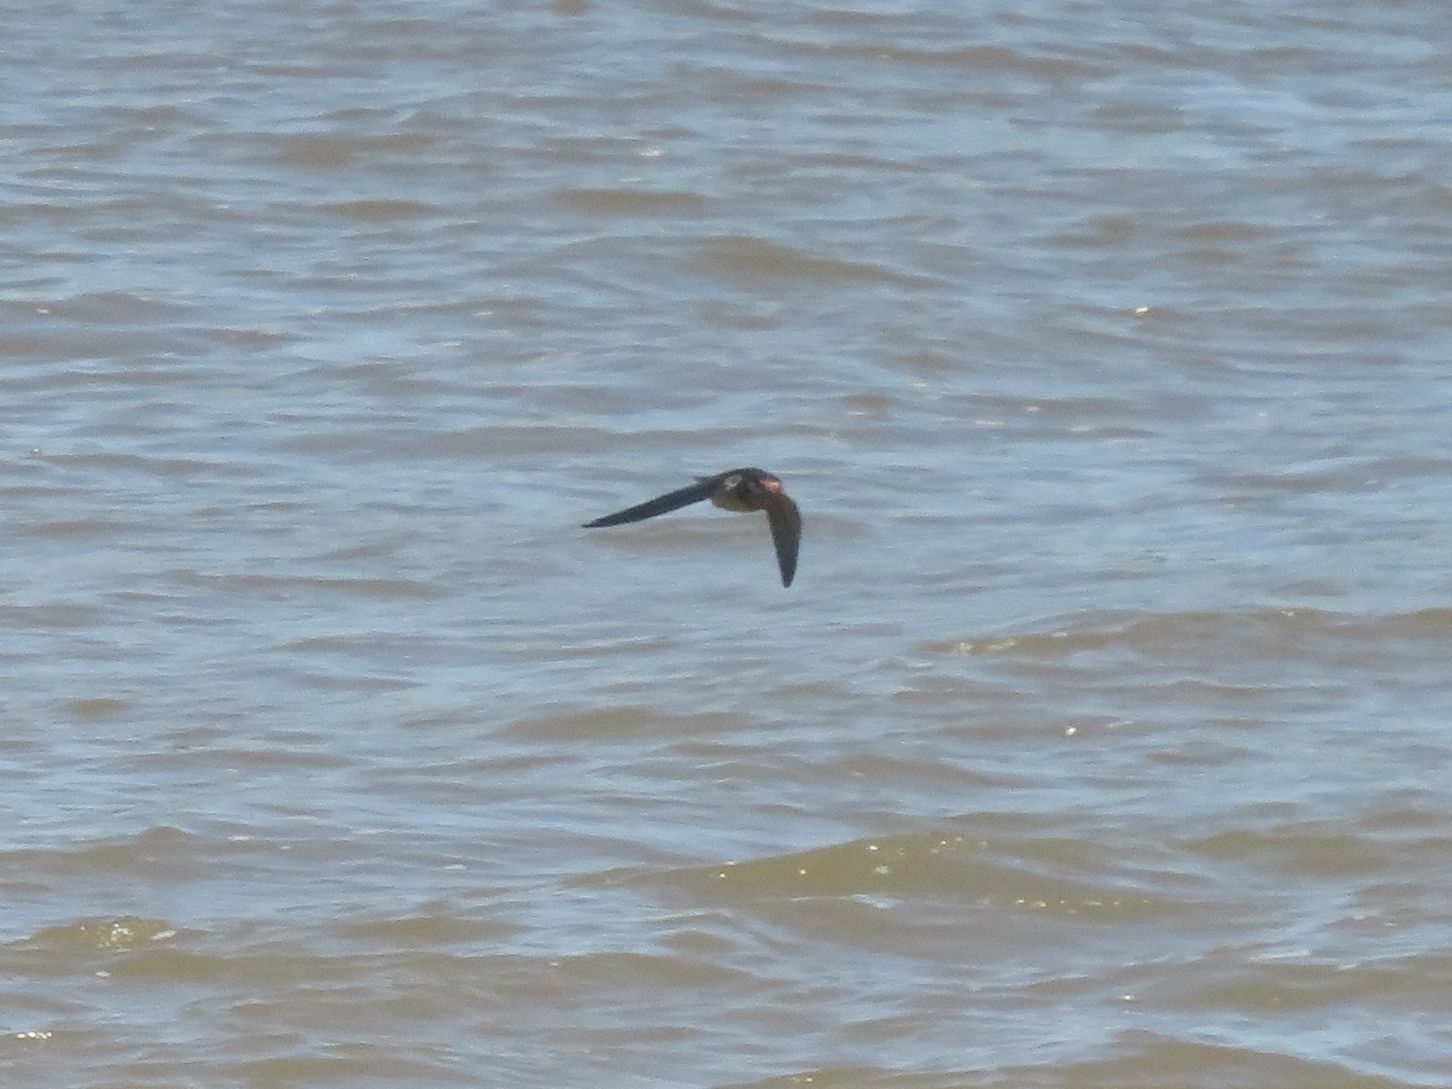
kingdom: Animalia
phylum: Chordata
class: Aves
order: Passeriformes
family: Hirundinidae
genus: Hirundo
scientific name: Hirundo rustica
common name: Barn swallow
